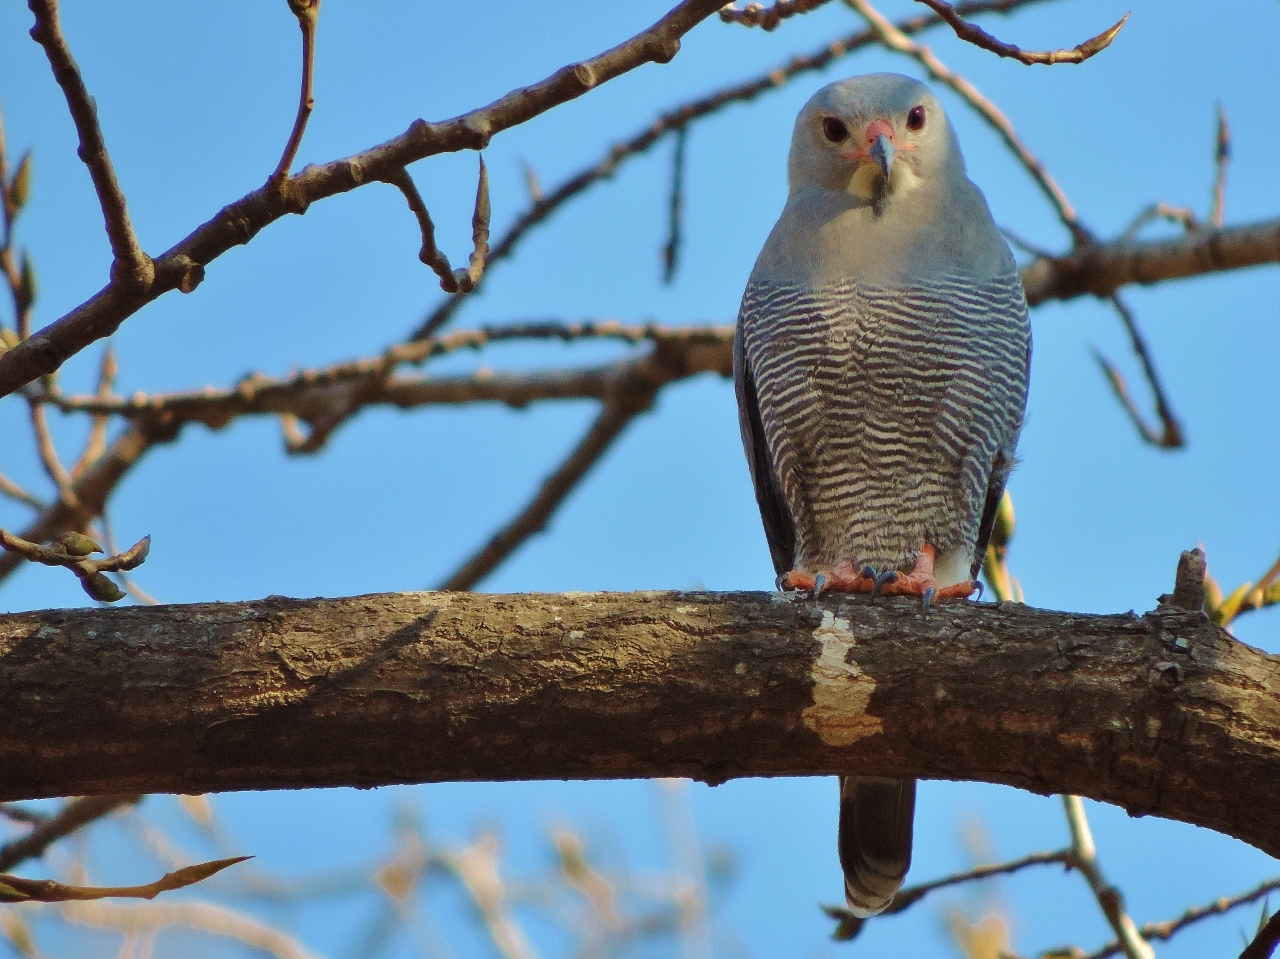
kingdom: Animalia
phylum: Chordata
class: Aves
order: Accipitriformes
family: Accipitridae
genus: Kaupifalco
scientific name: Kaupifalco monogrammicus
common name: Lizard buzzard
